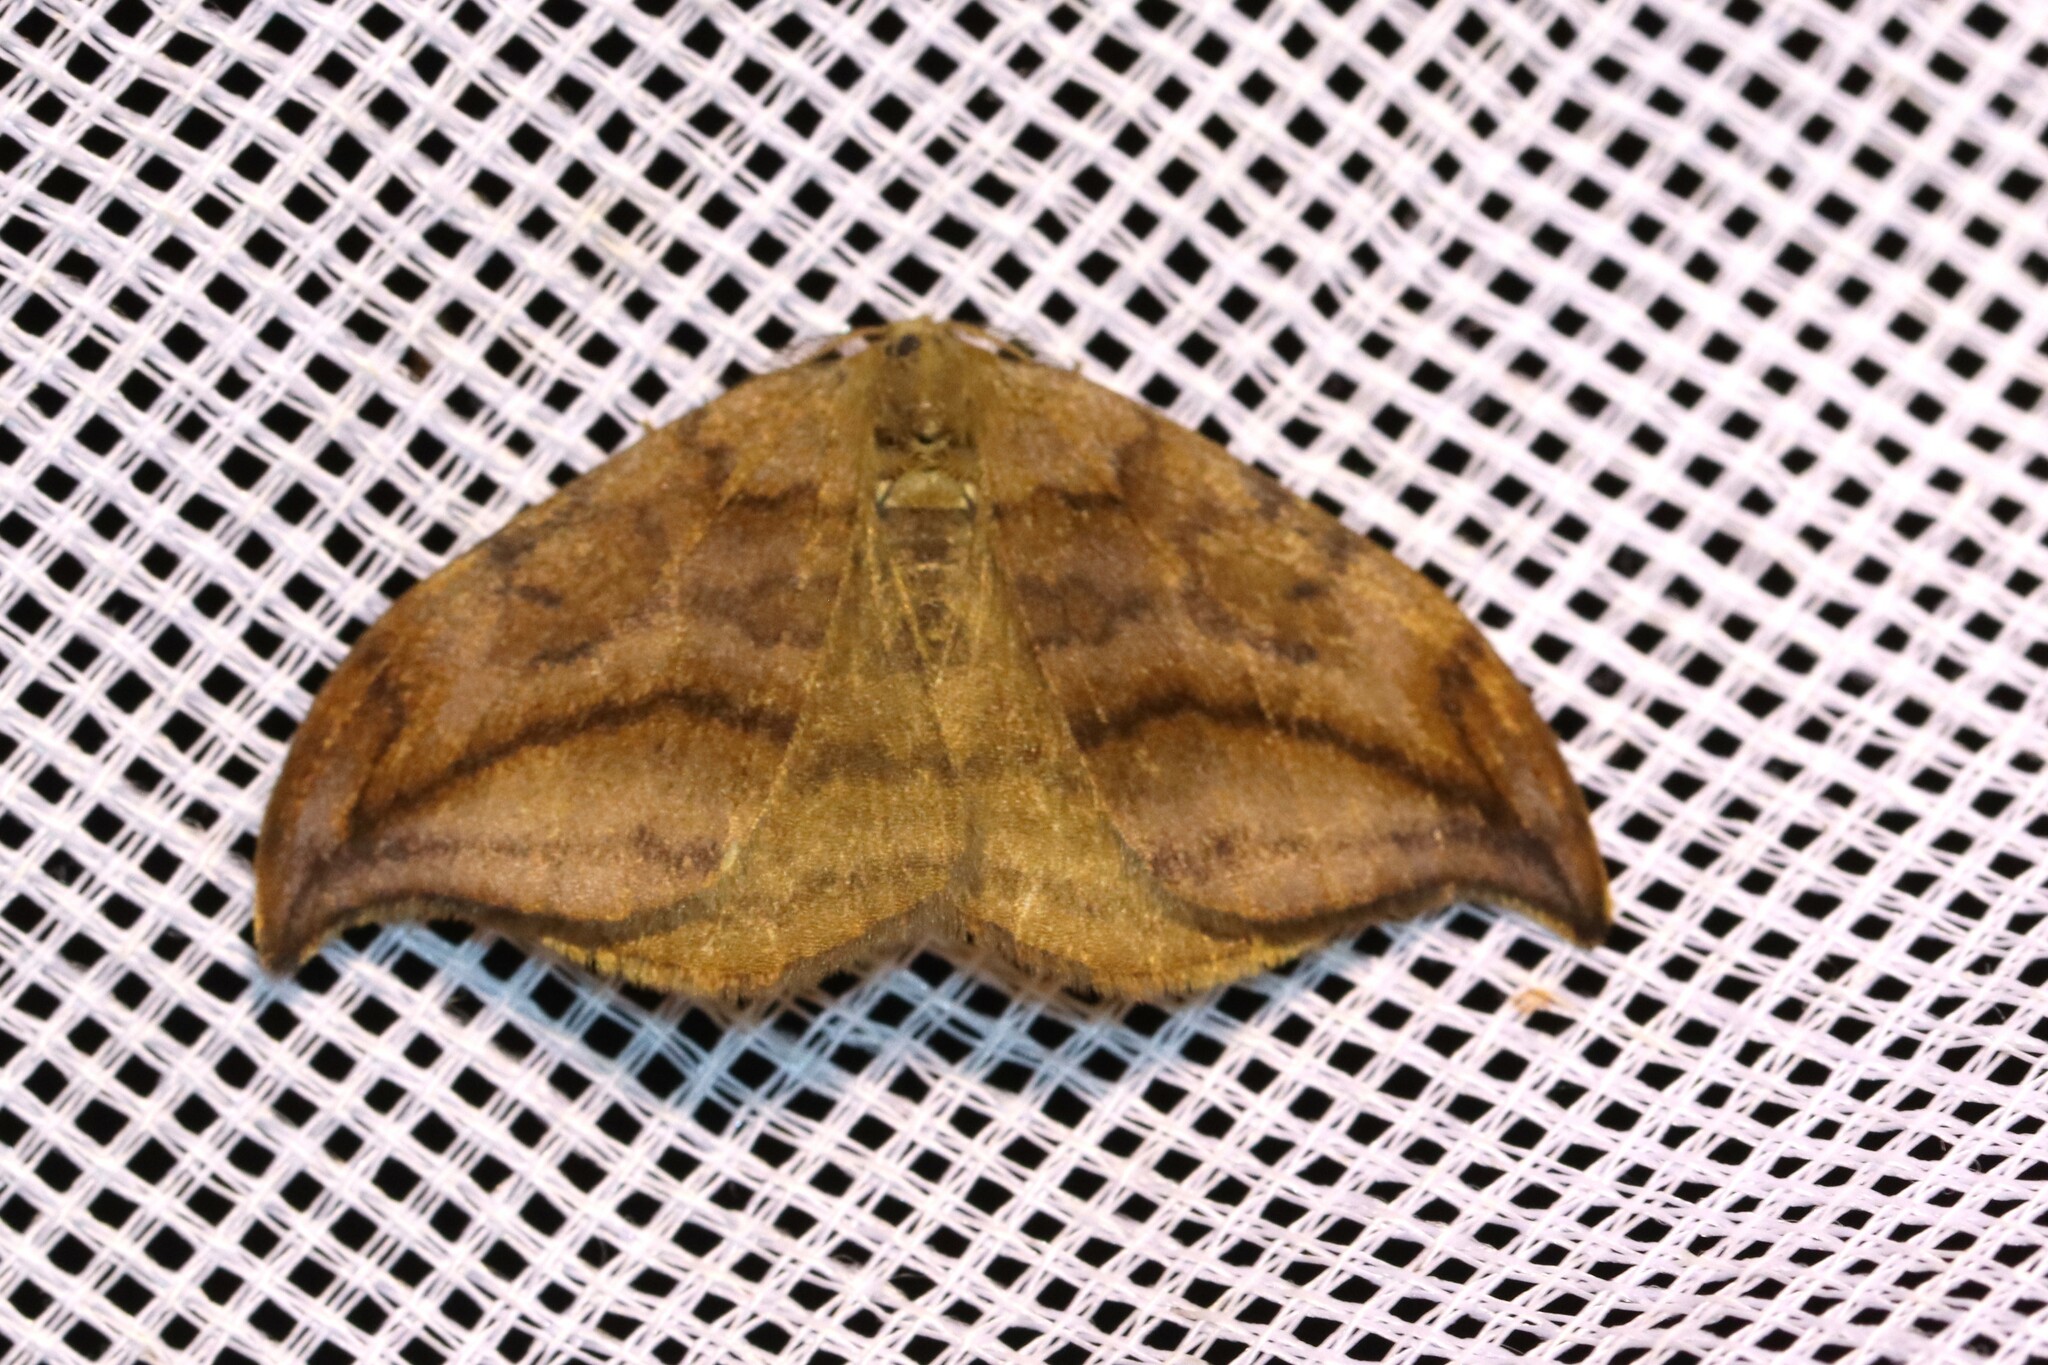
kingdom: Animalia
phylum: Arthropoda
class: Insecta
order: Lepidoptera
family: Drepanidae
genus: Drepana
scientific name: Drepana curvatula
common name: Dusky hook-tip
